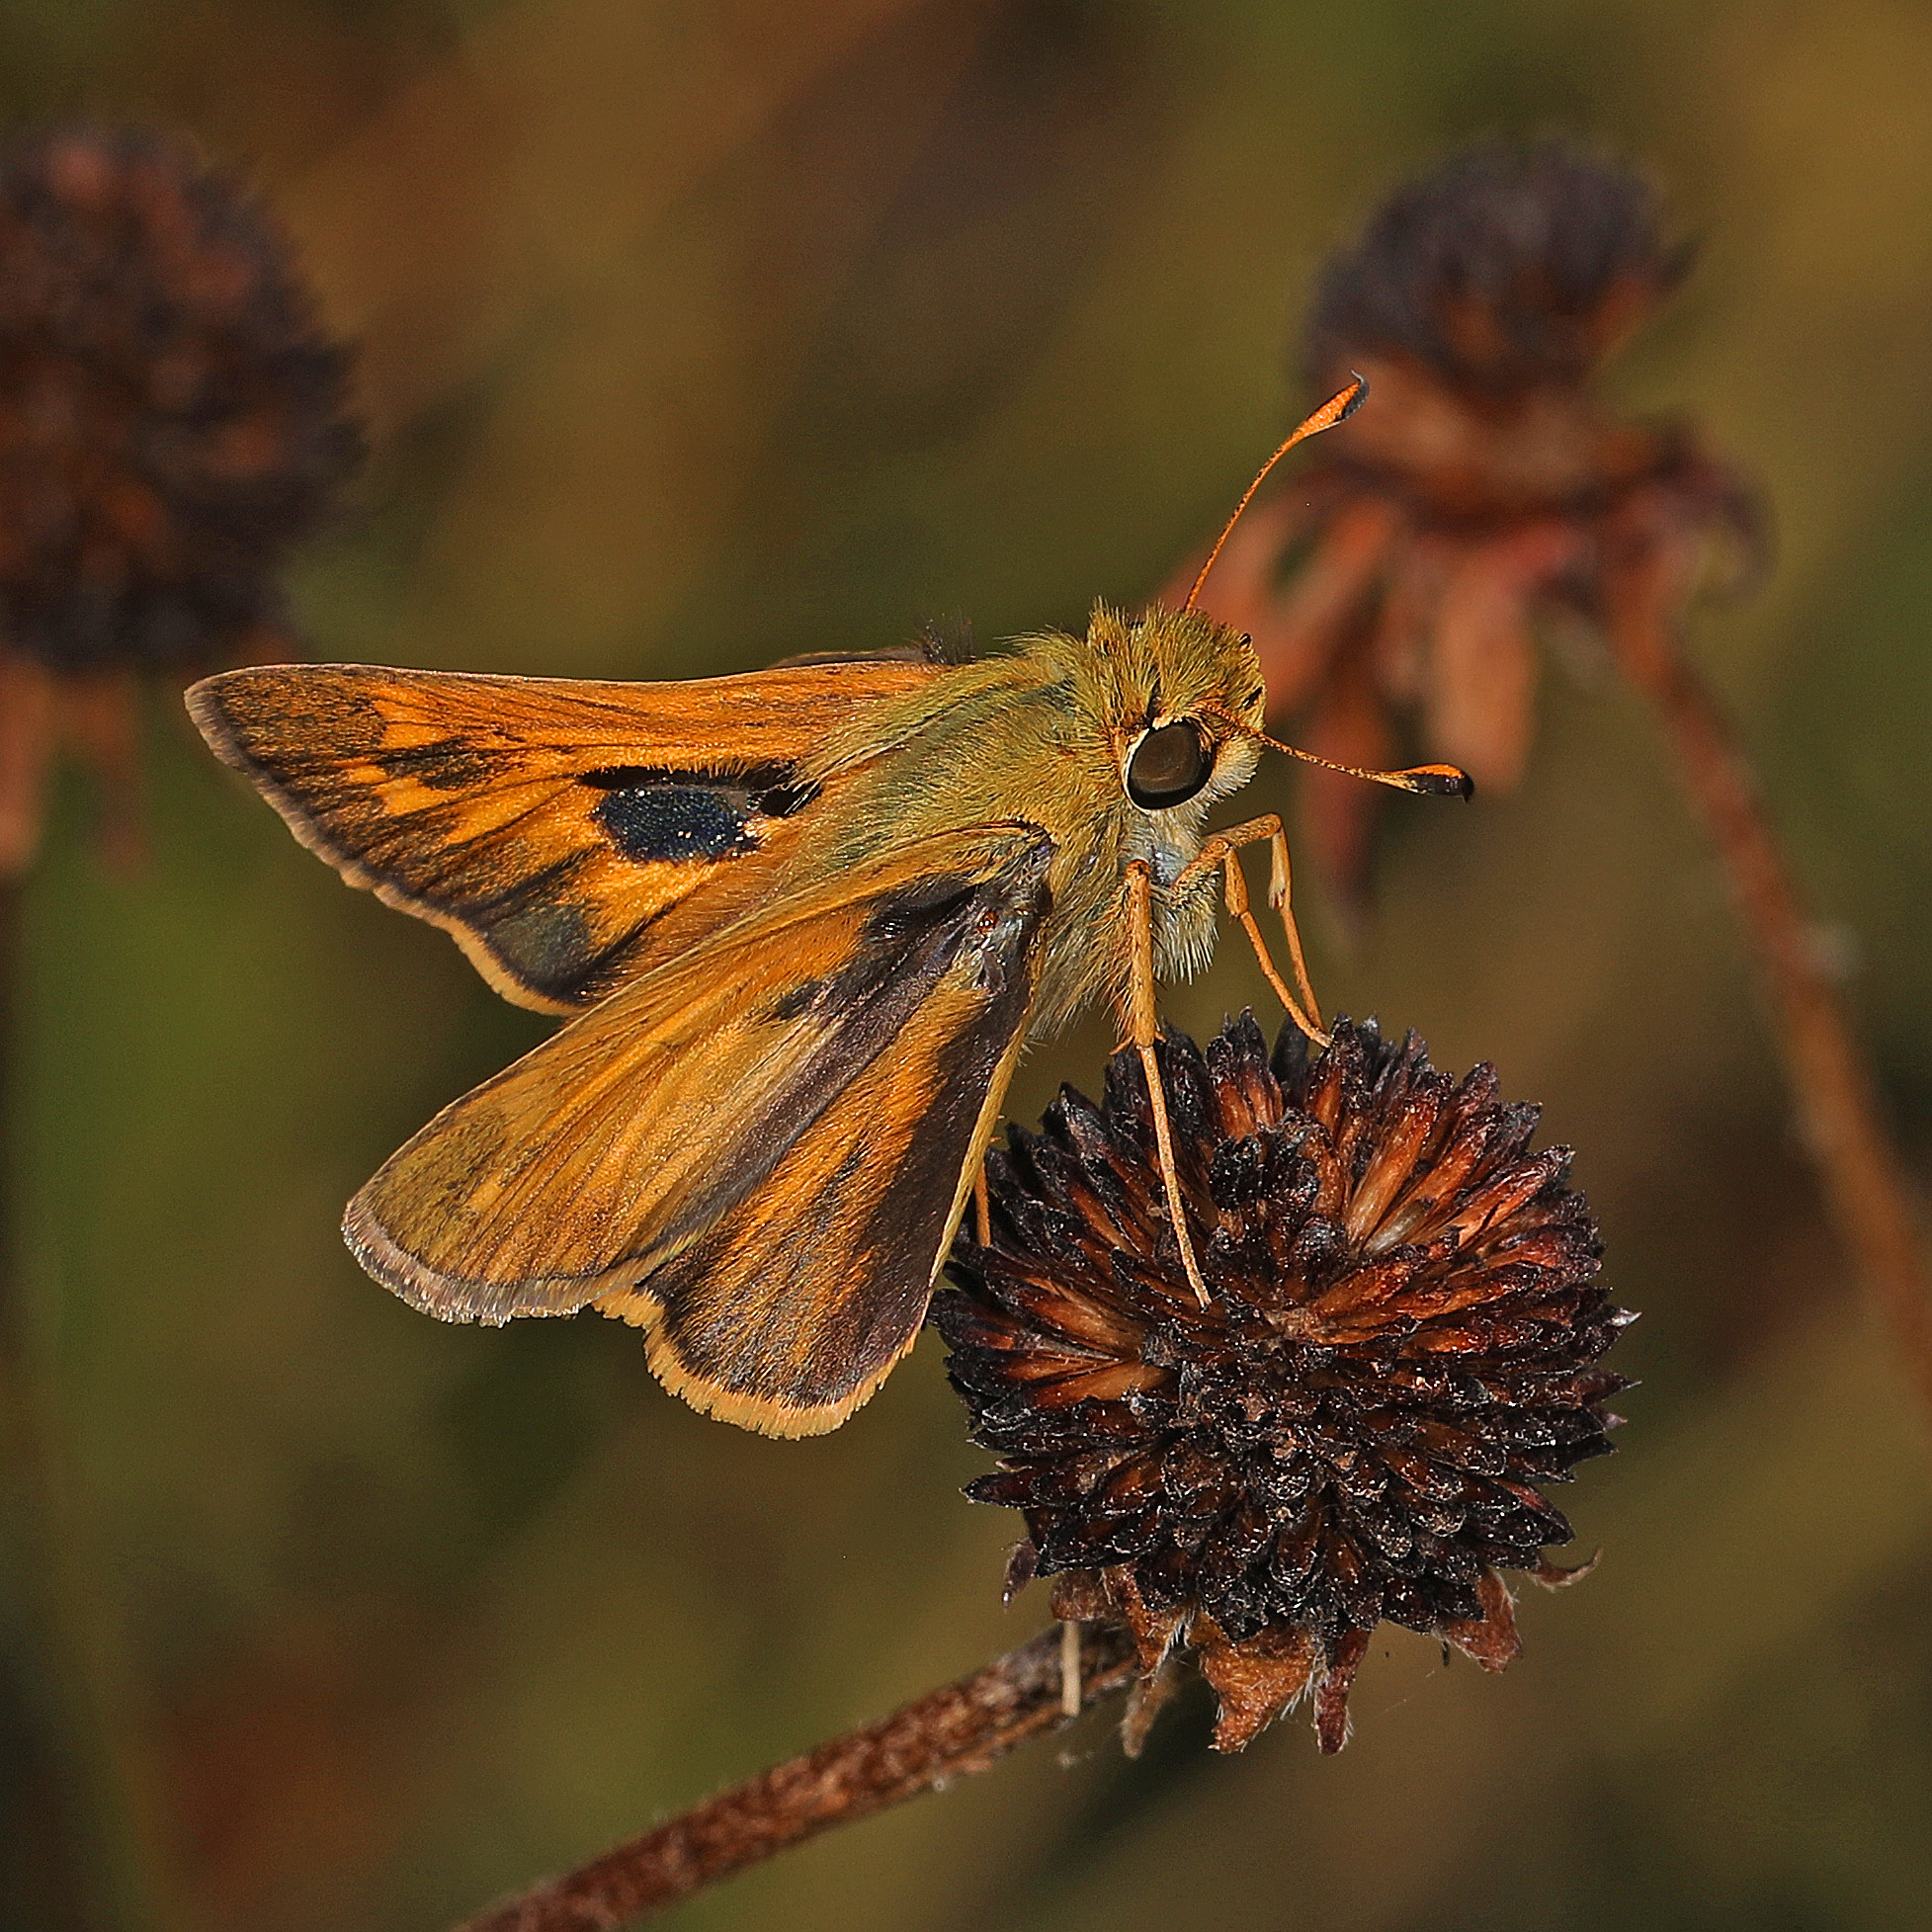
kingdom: Animalia
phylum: Arthropoda
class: Insecta
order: Lepidoptera
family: Hesperiidae
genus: Atalopedes
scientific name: Atalopedes
